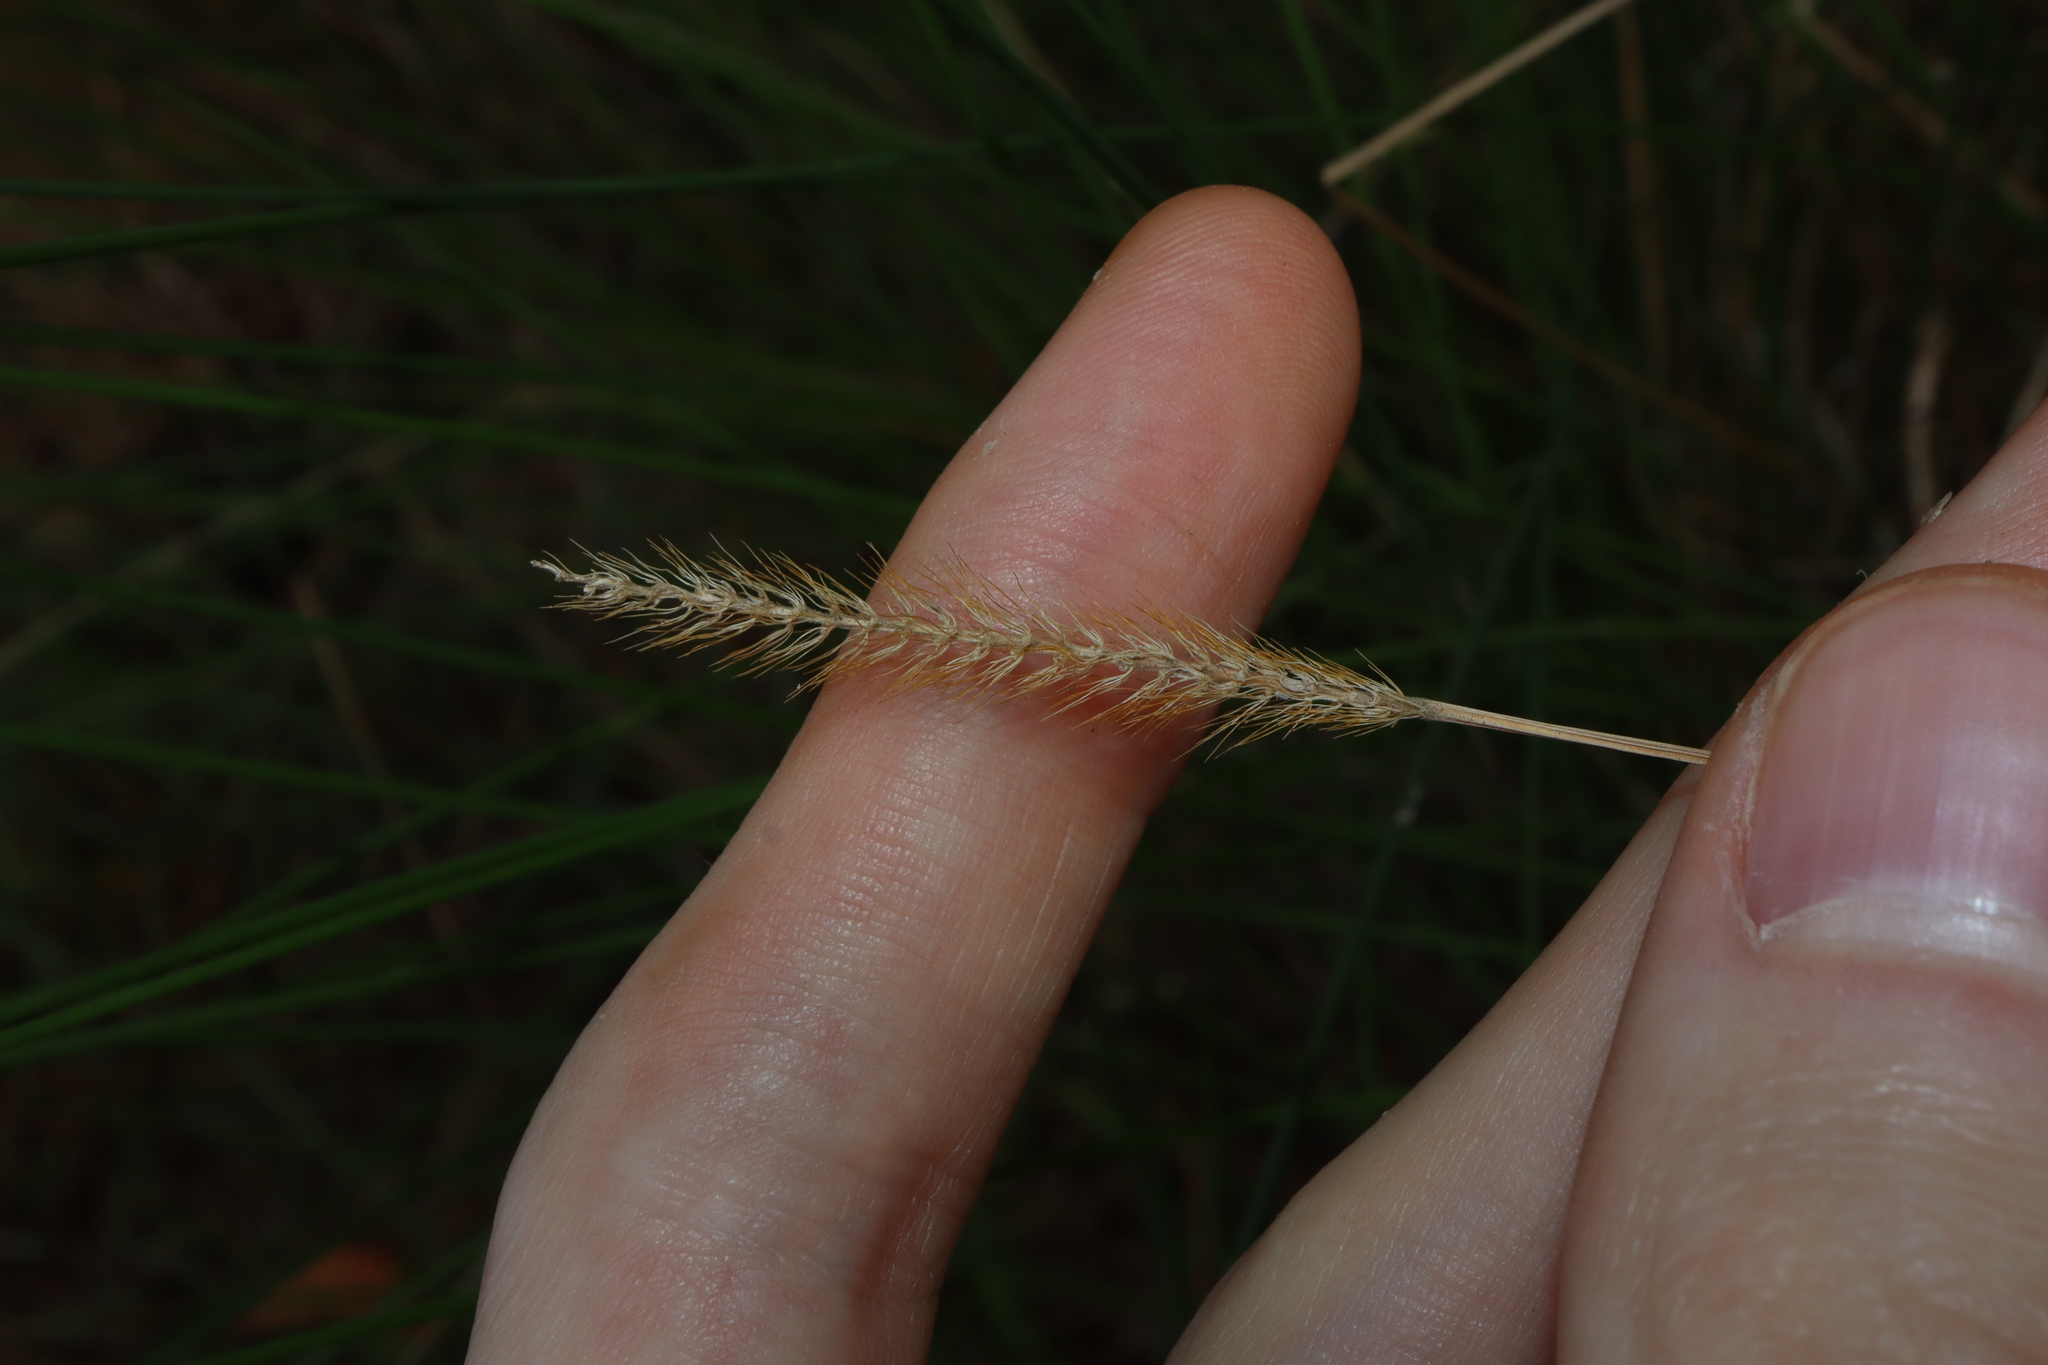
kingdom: Plantae
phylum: Tracheophyta
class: Liliopsida
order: Poales
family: Poaceae
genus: Setaria
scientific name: Setaria pumila
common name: Yellow bristle-grass
